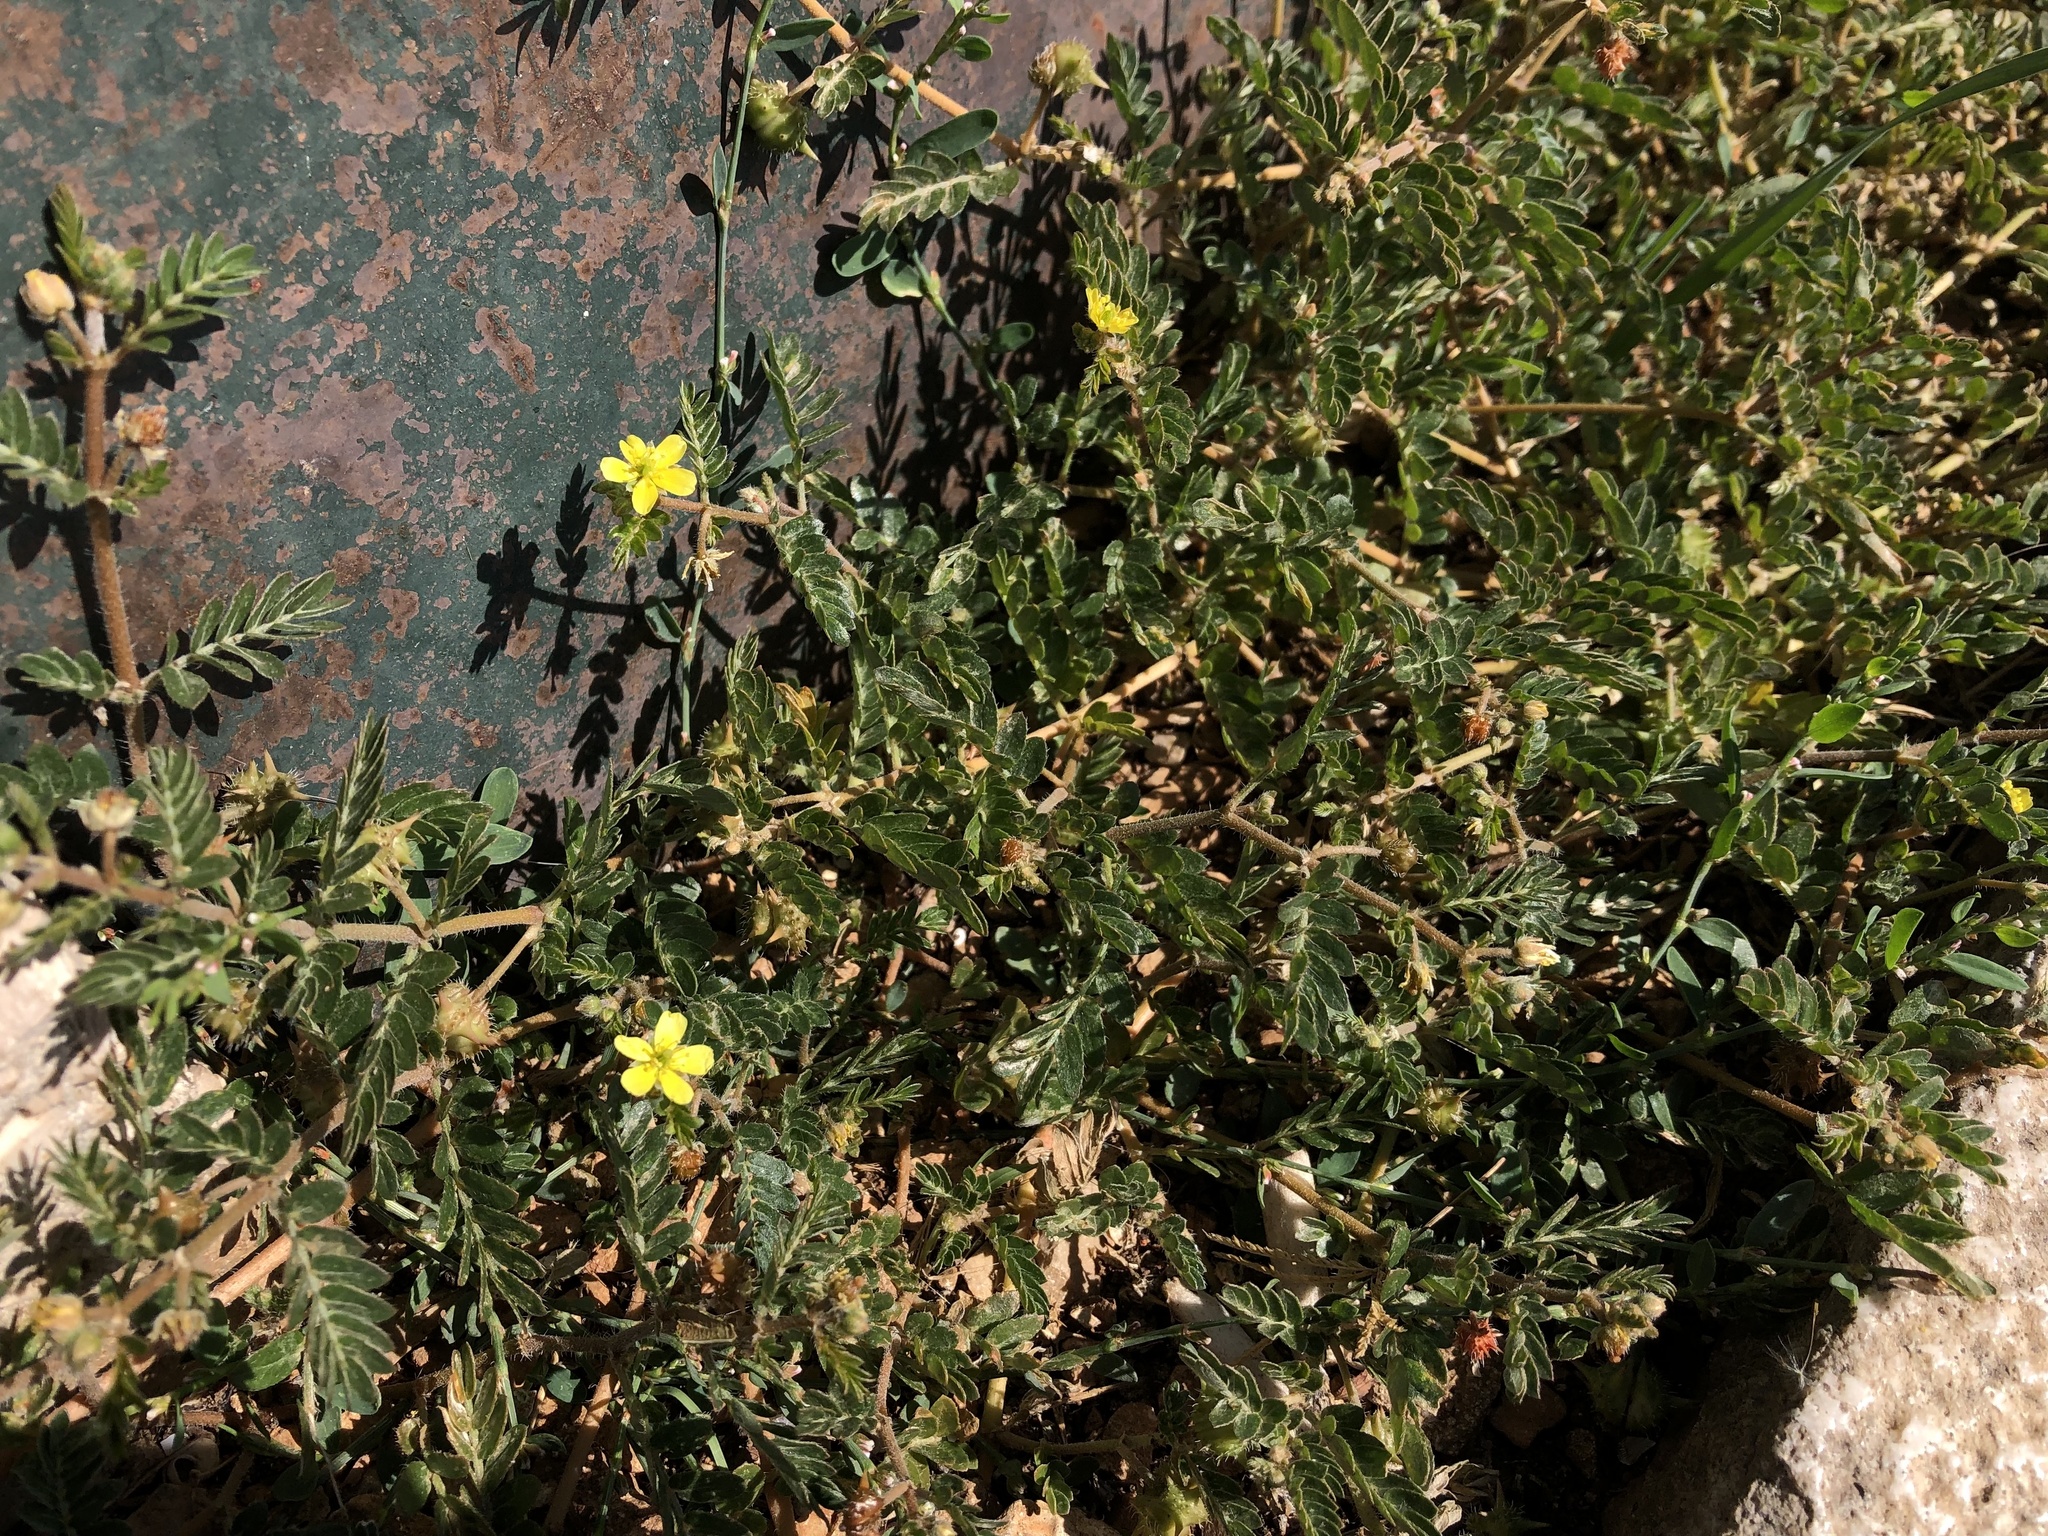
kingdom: Plantae
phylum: Tracheophyta
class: Magnoliopsida
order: Zygophyllales
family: Zygophyllaceae
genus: Tribulus
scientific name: Tribulus terrestris
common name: Puncturevine
